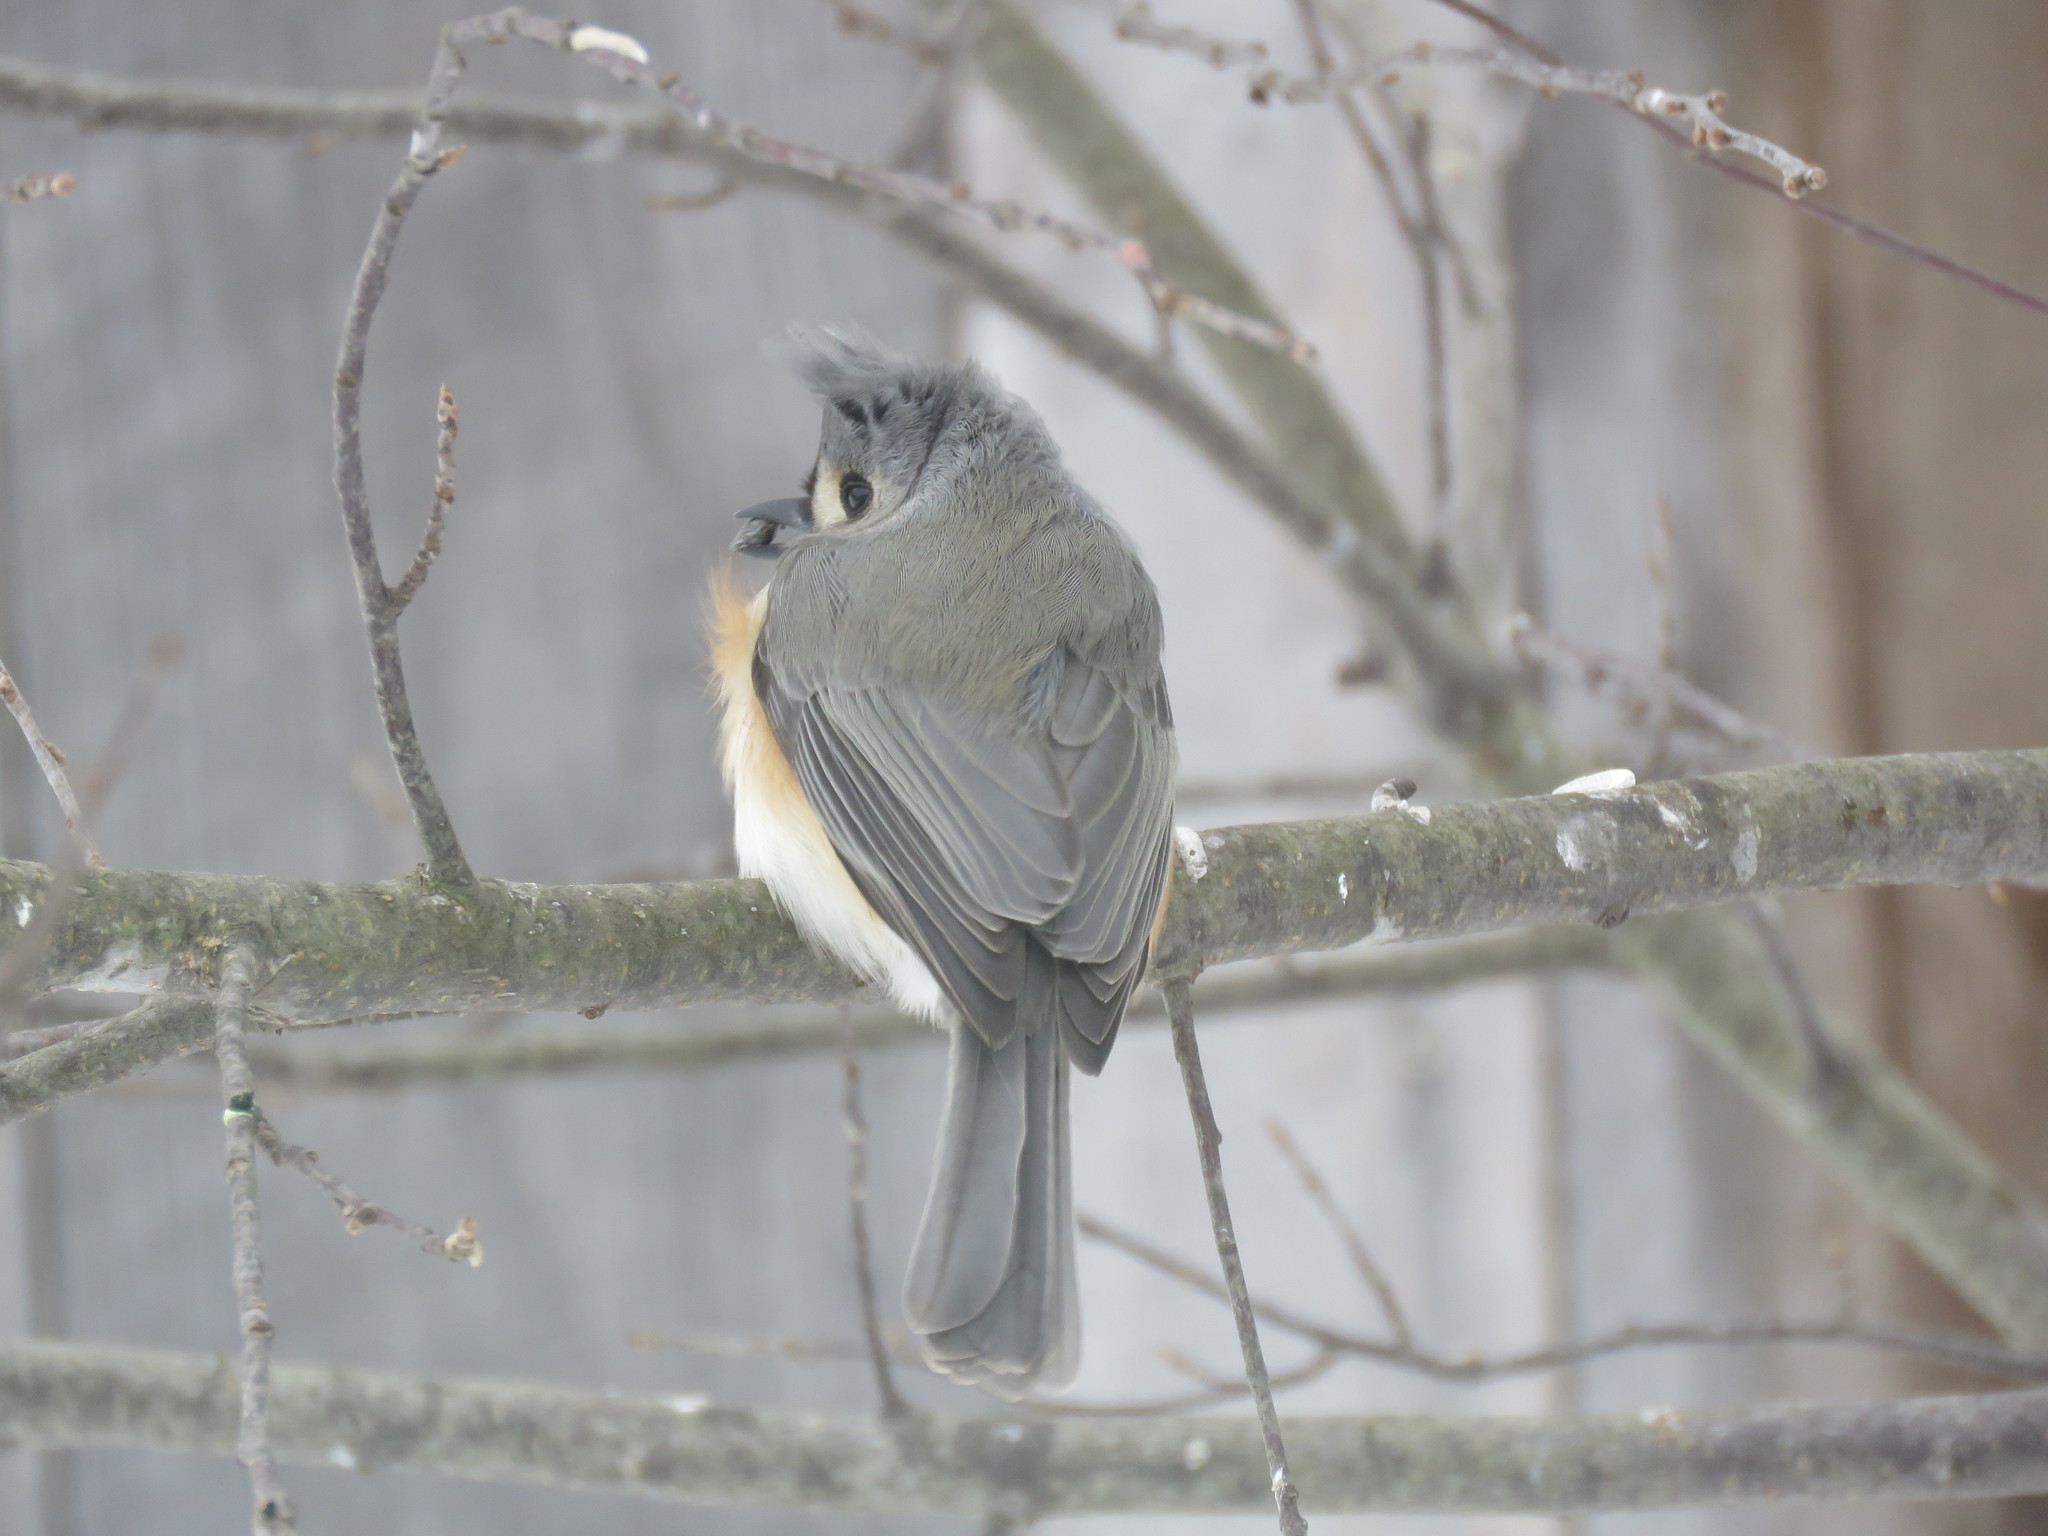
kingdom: Animalia
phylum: Chordata
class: Aves
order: Passeriformes
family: Paridae
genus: Baeolophus
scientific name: Baeolophus bicolor
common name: Tufted titmouse
